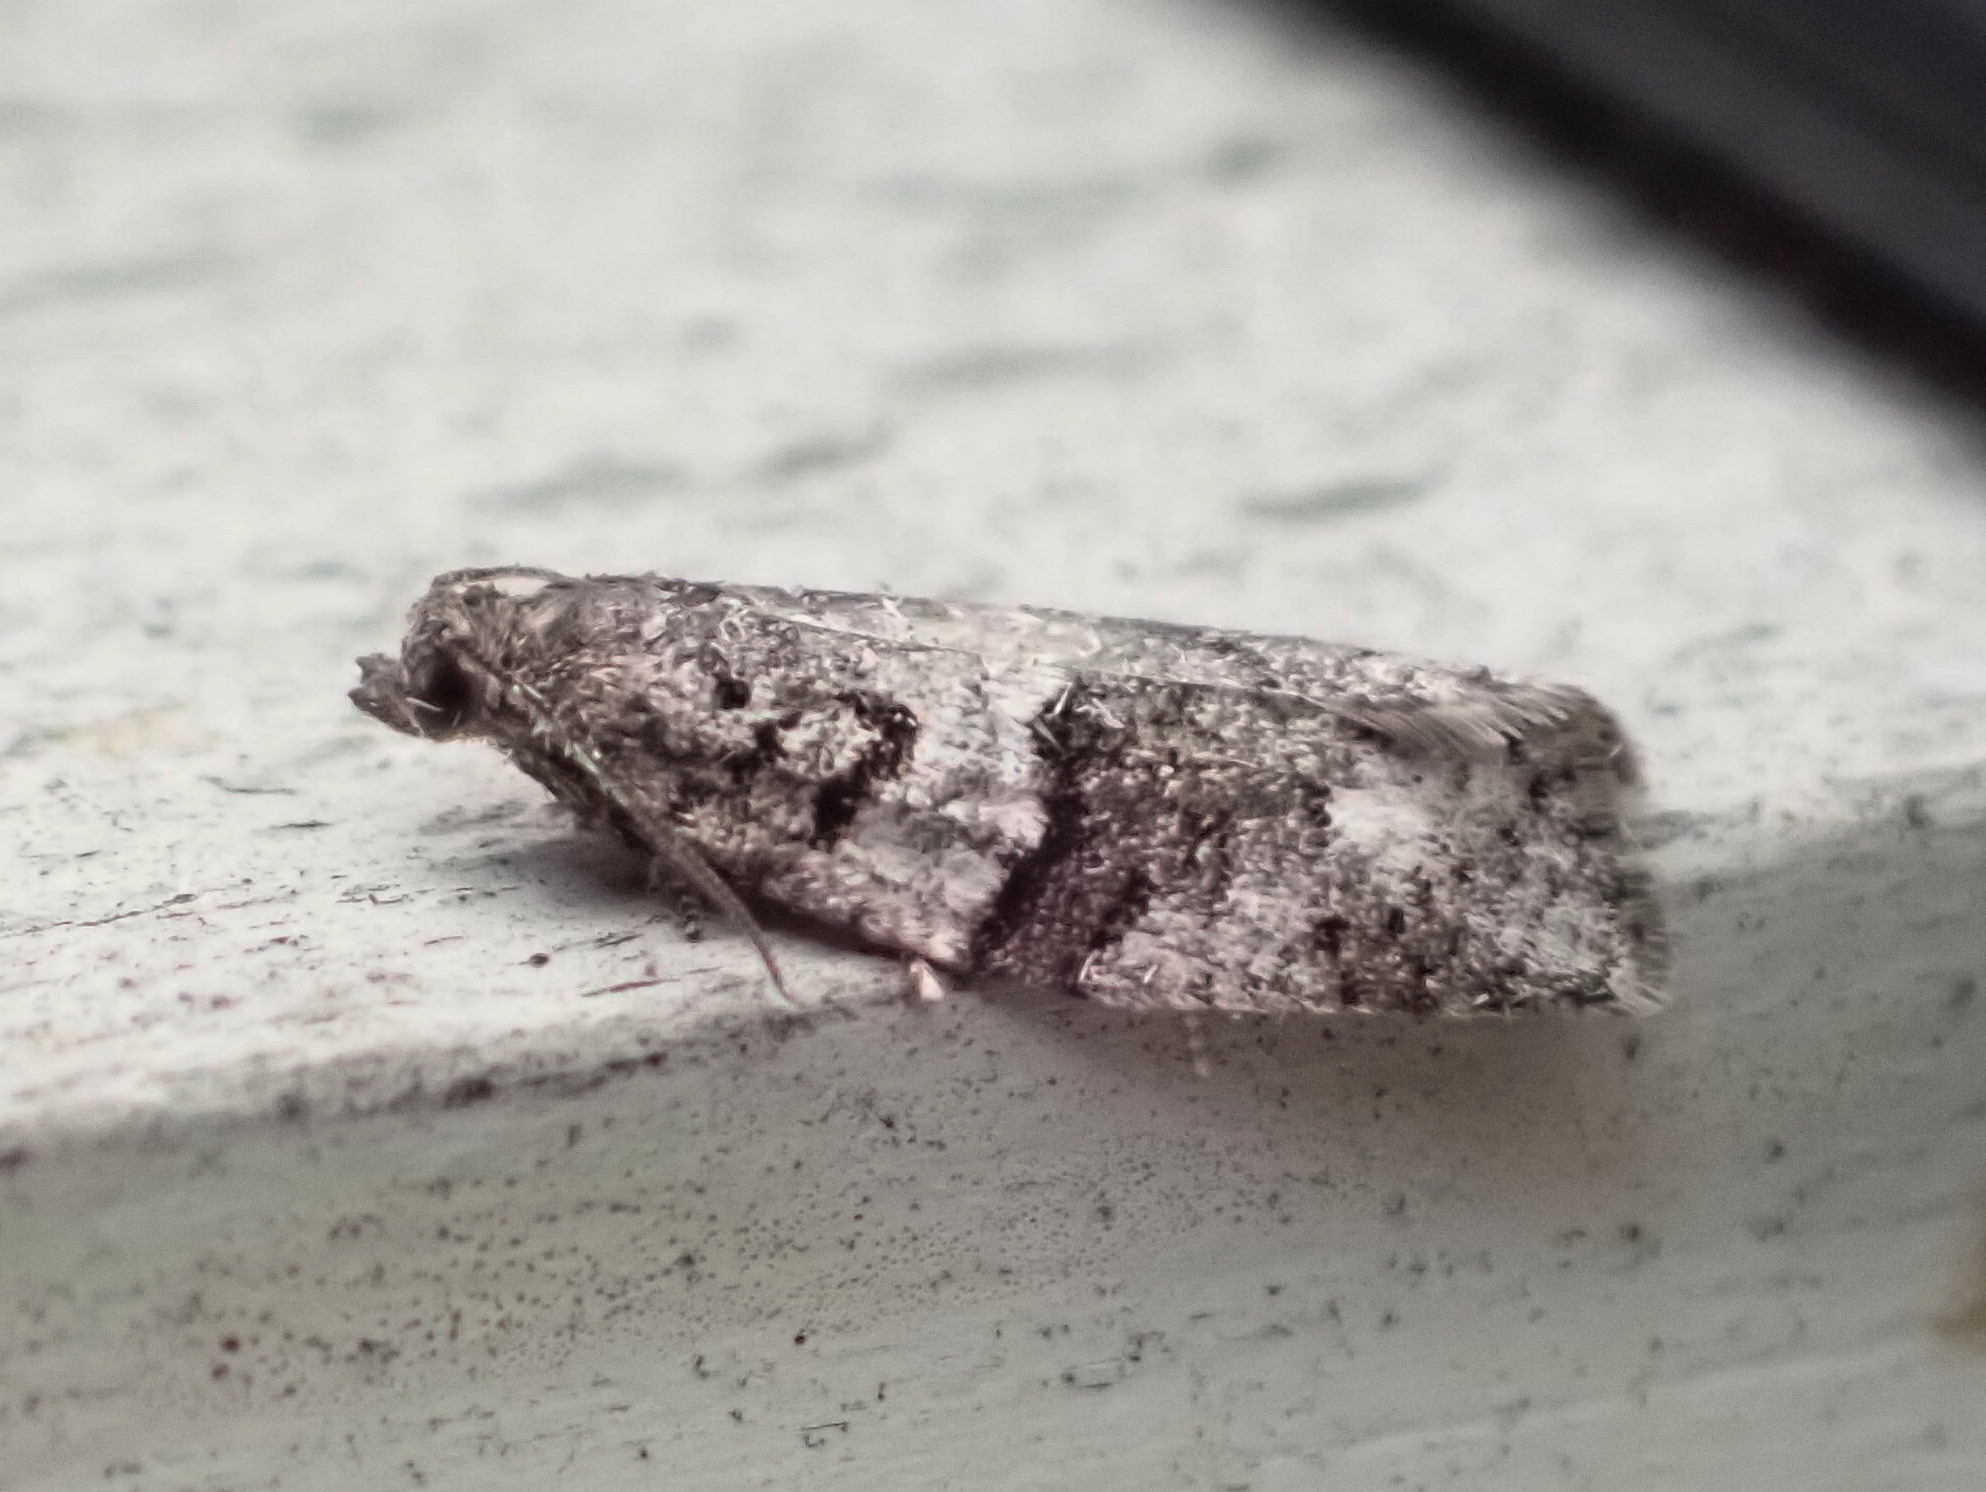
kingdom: Animalia
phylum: Arthropoda
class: Insecta
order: Lepidoptera
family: Tortricidae
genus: Syndemis
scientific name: Syndemis afflictana
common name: Gray leafroller moth
